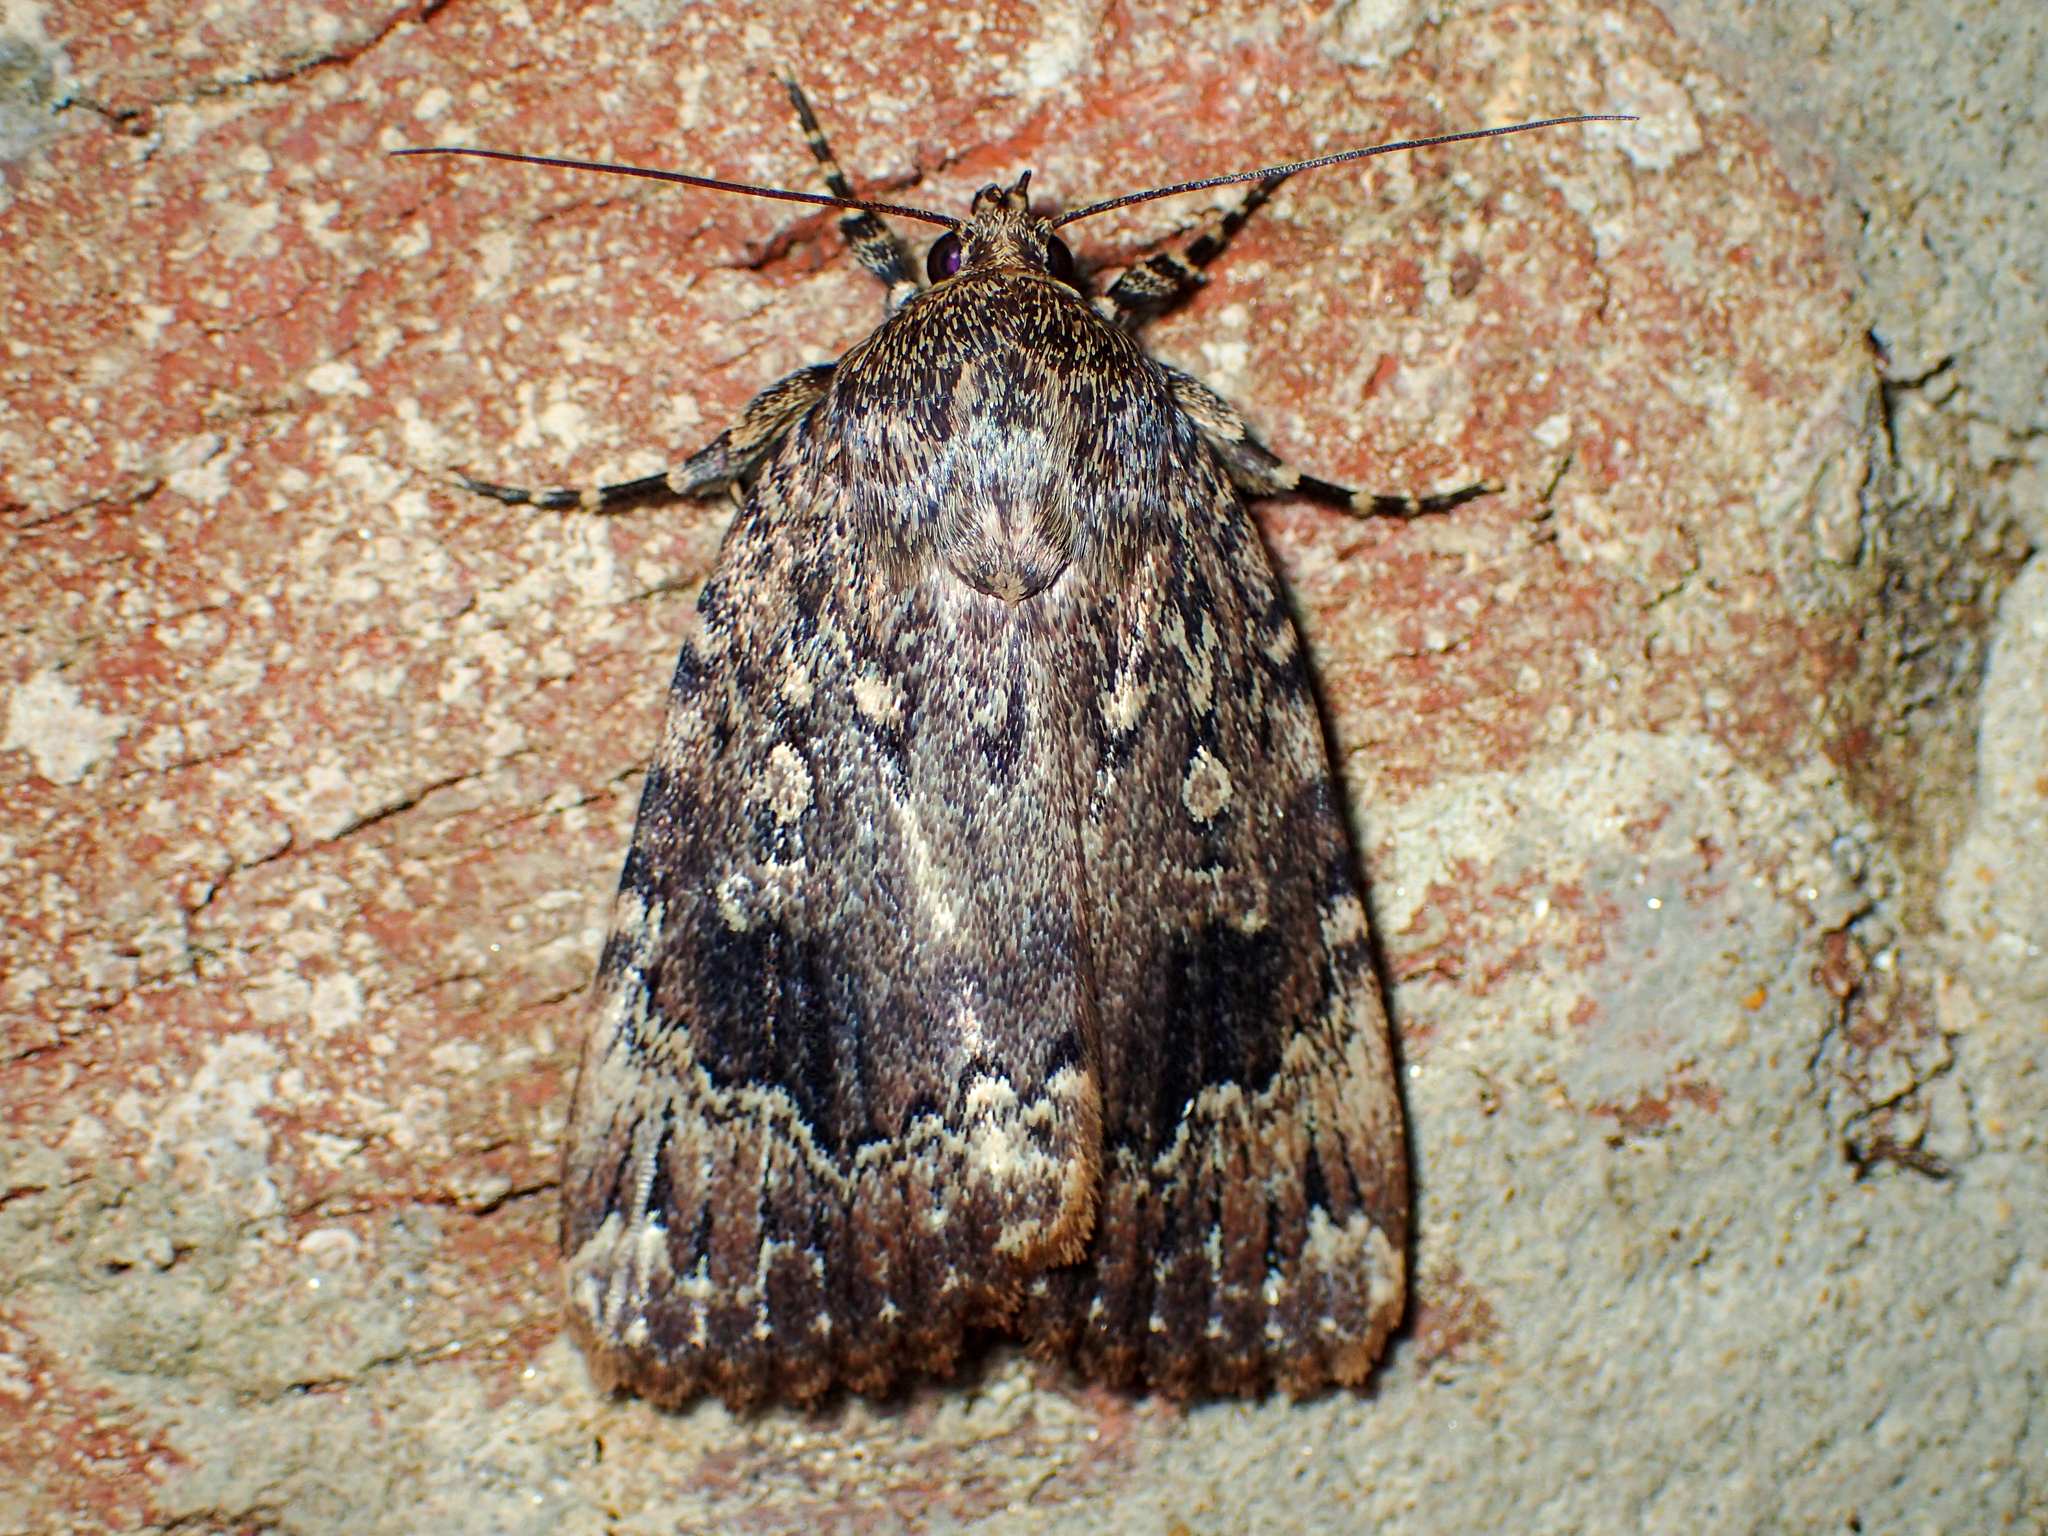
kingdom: Animalia
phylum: Arthropoda
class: Insecta
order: Lepidoptera
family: Noctuidae
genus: Amphipyra
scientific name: Amphipyra pyramidoides
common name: American copper underwing
